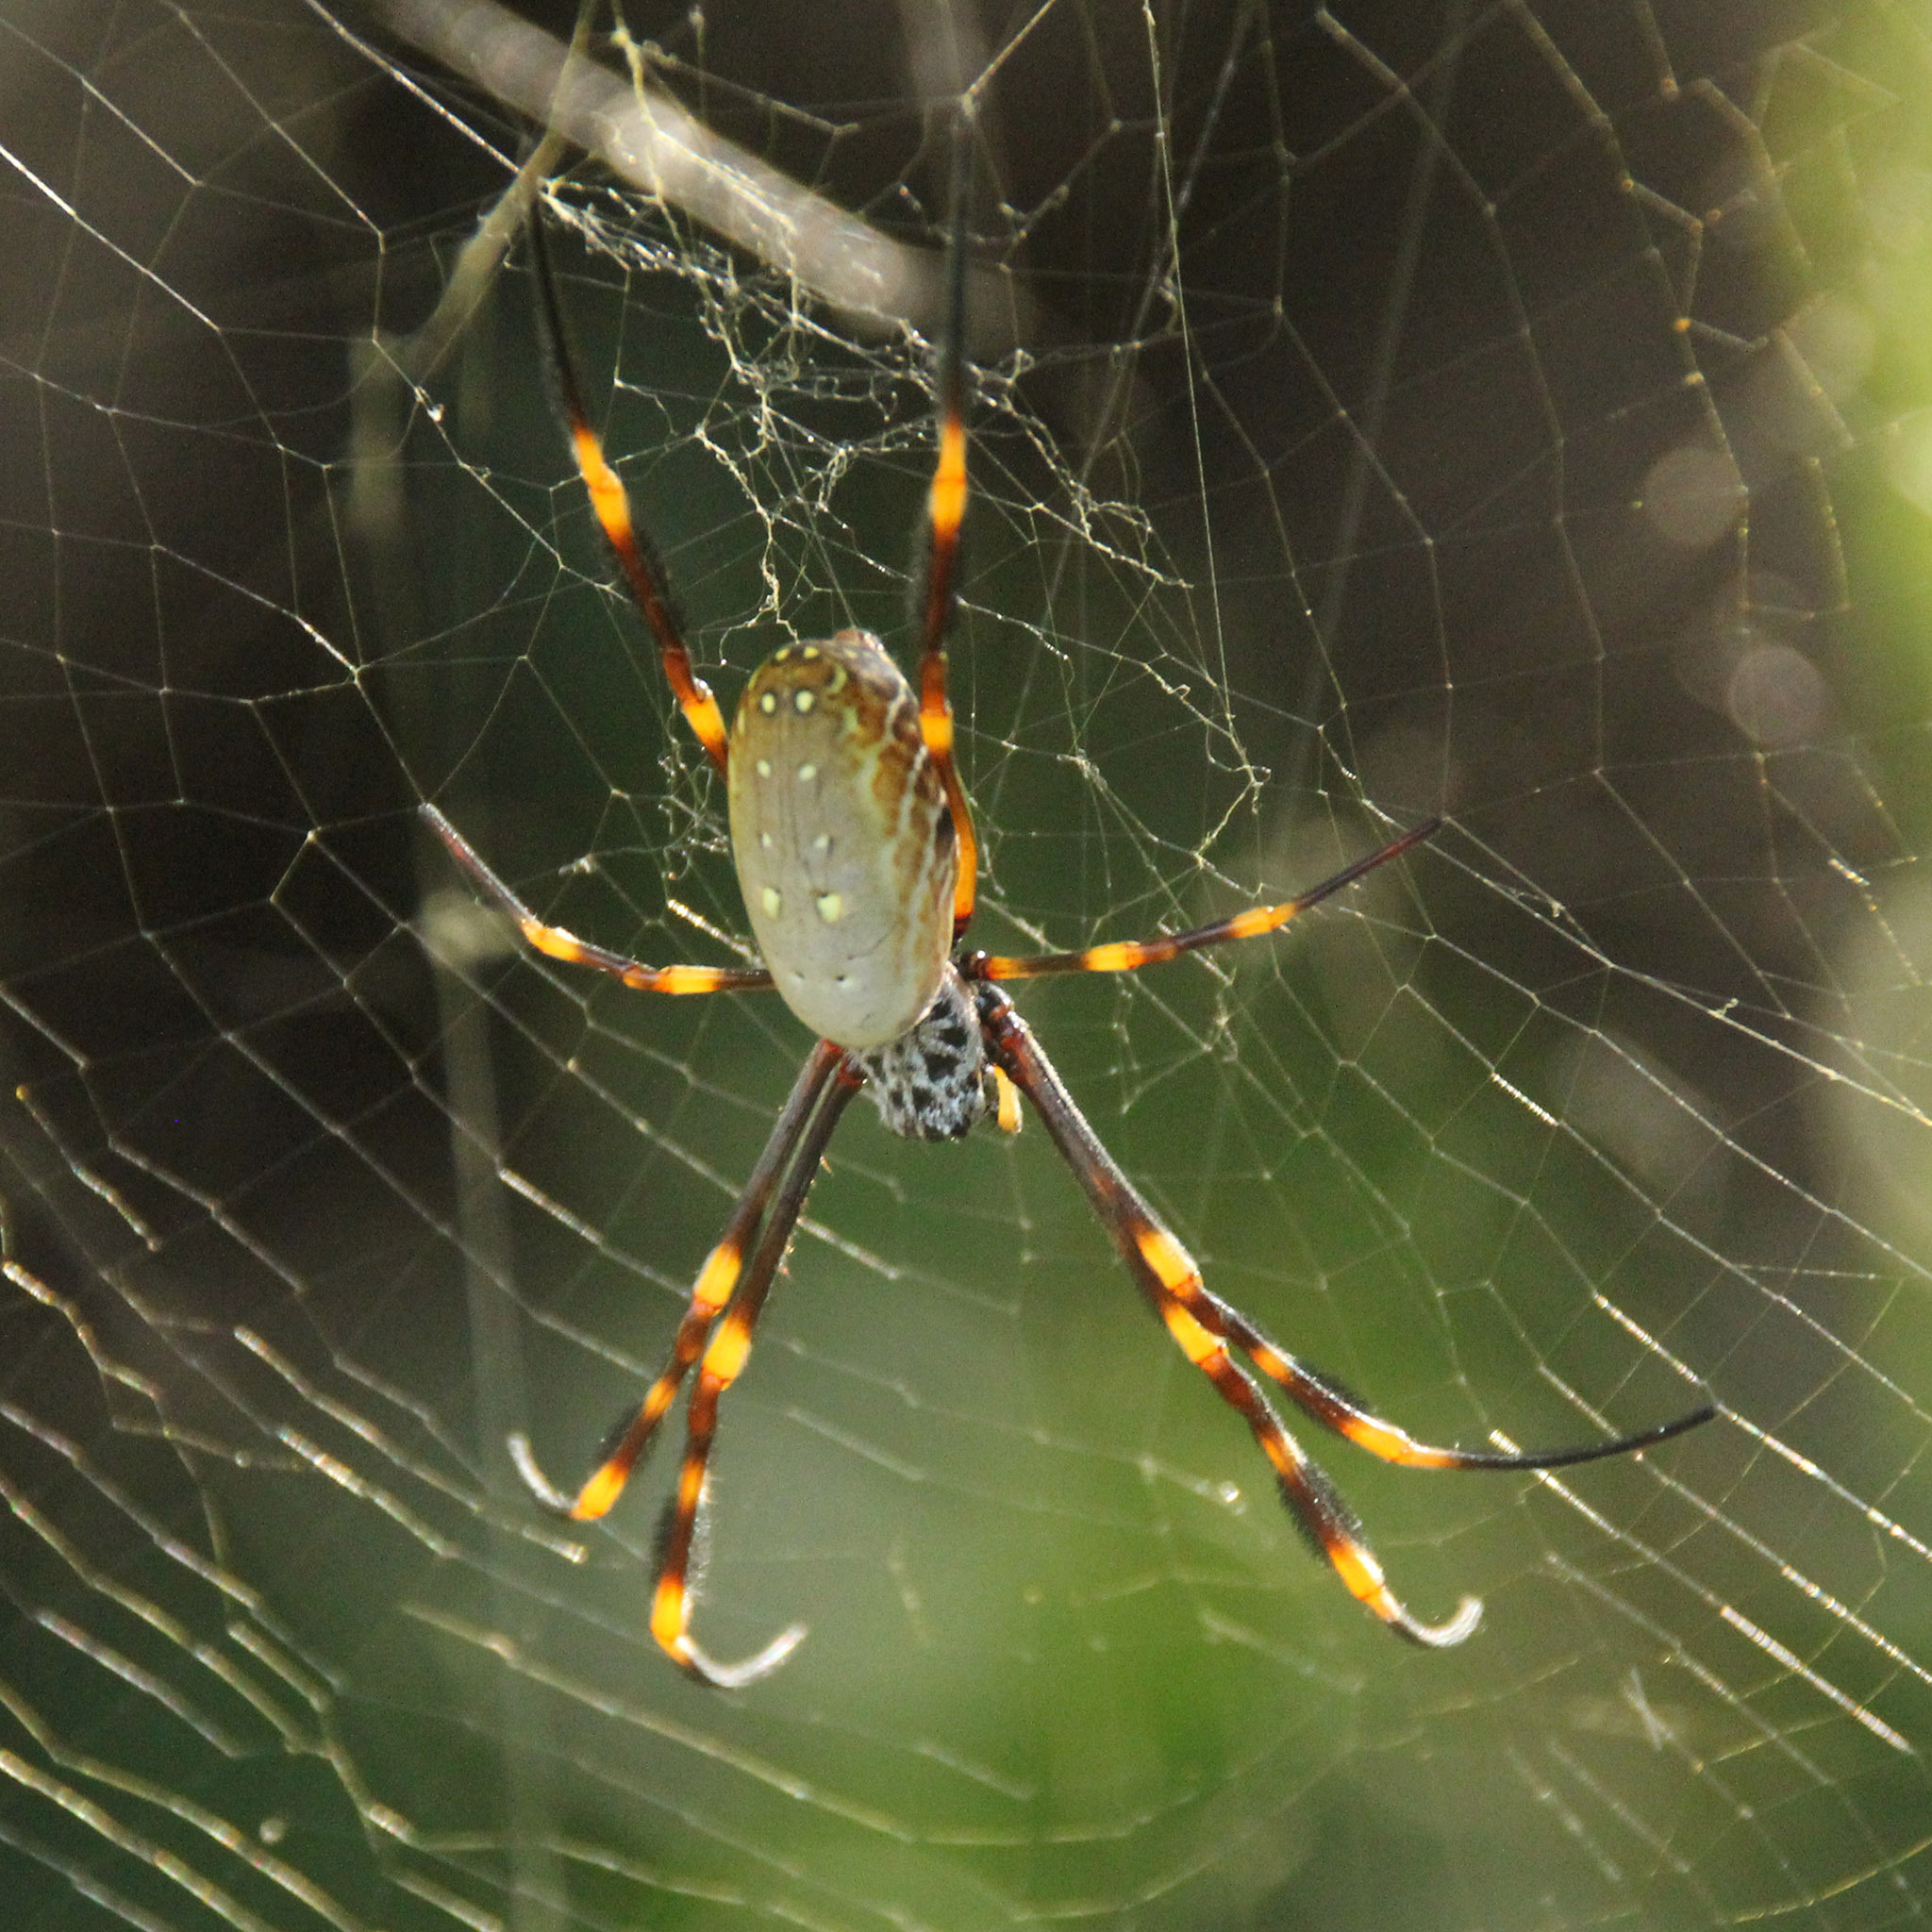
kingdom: Animalia
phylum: Arthropoda
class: Arachnida
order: Araneae
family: Araneidae
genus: Trichonephila
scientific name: Trichonephila plumipes
